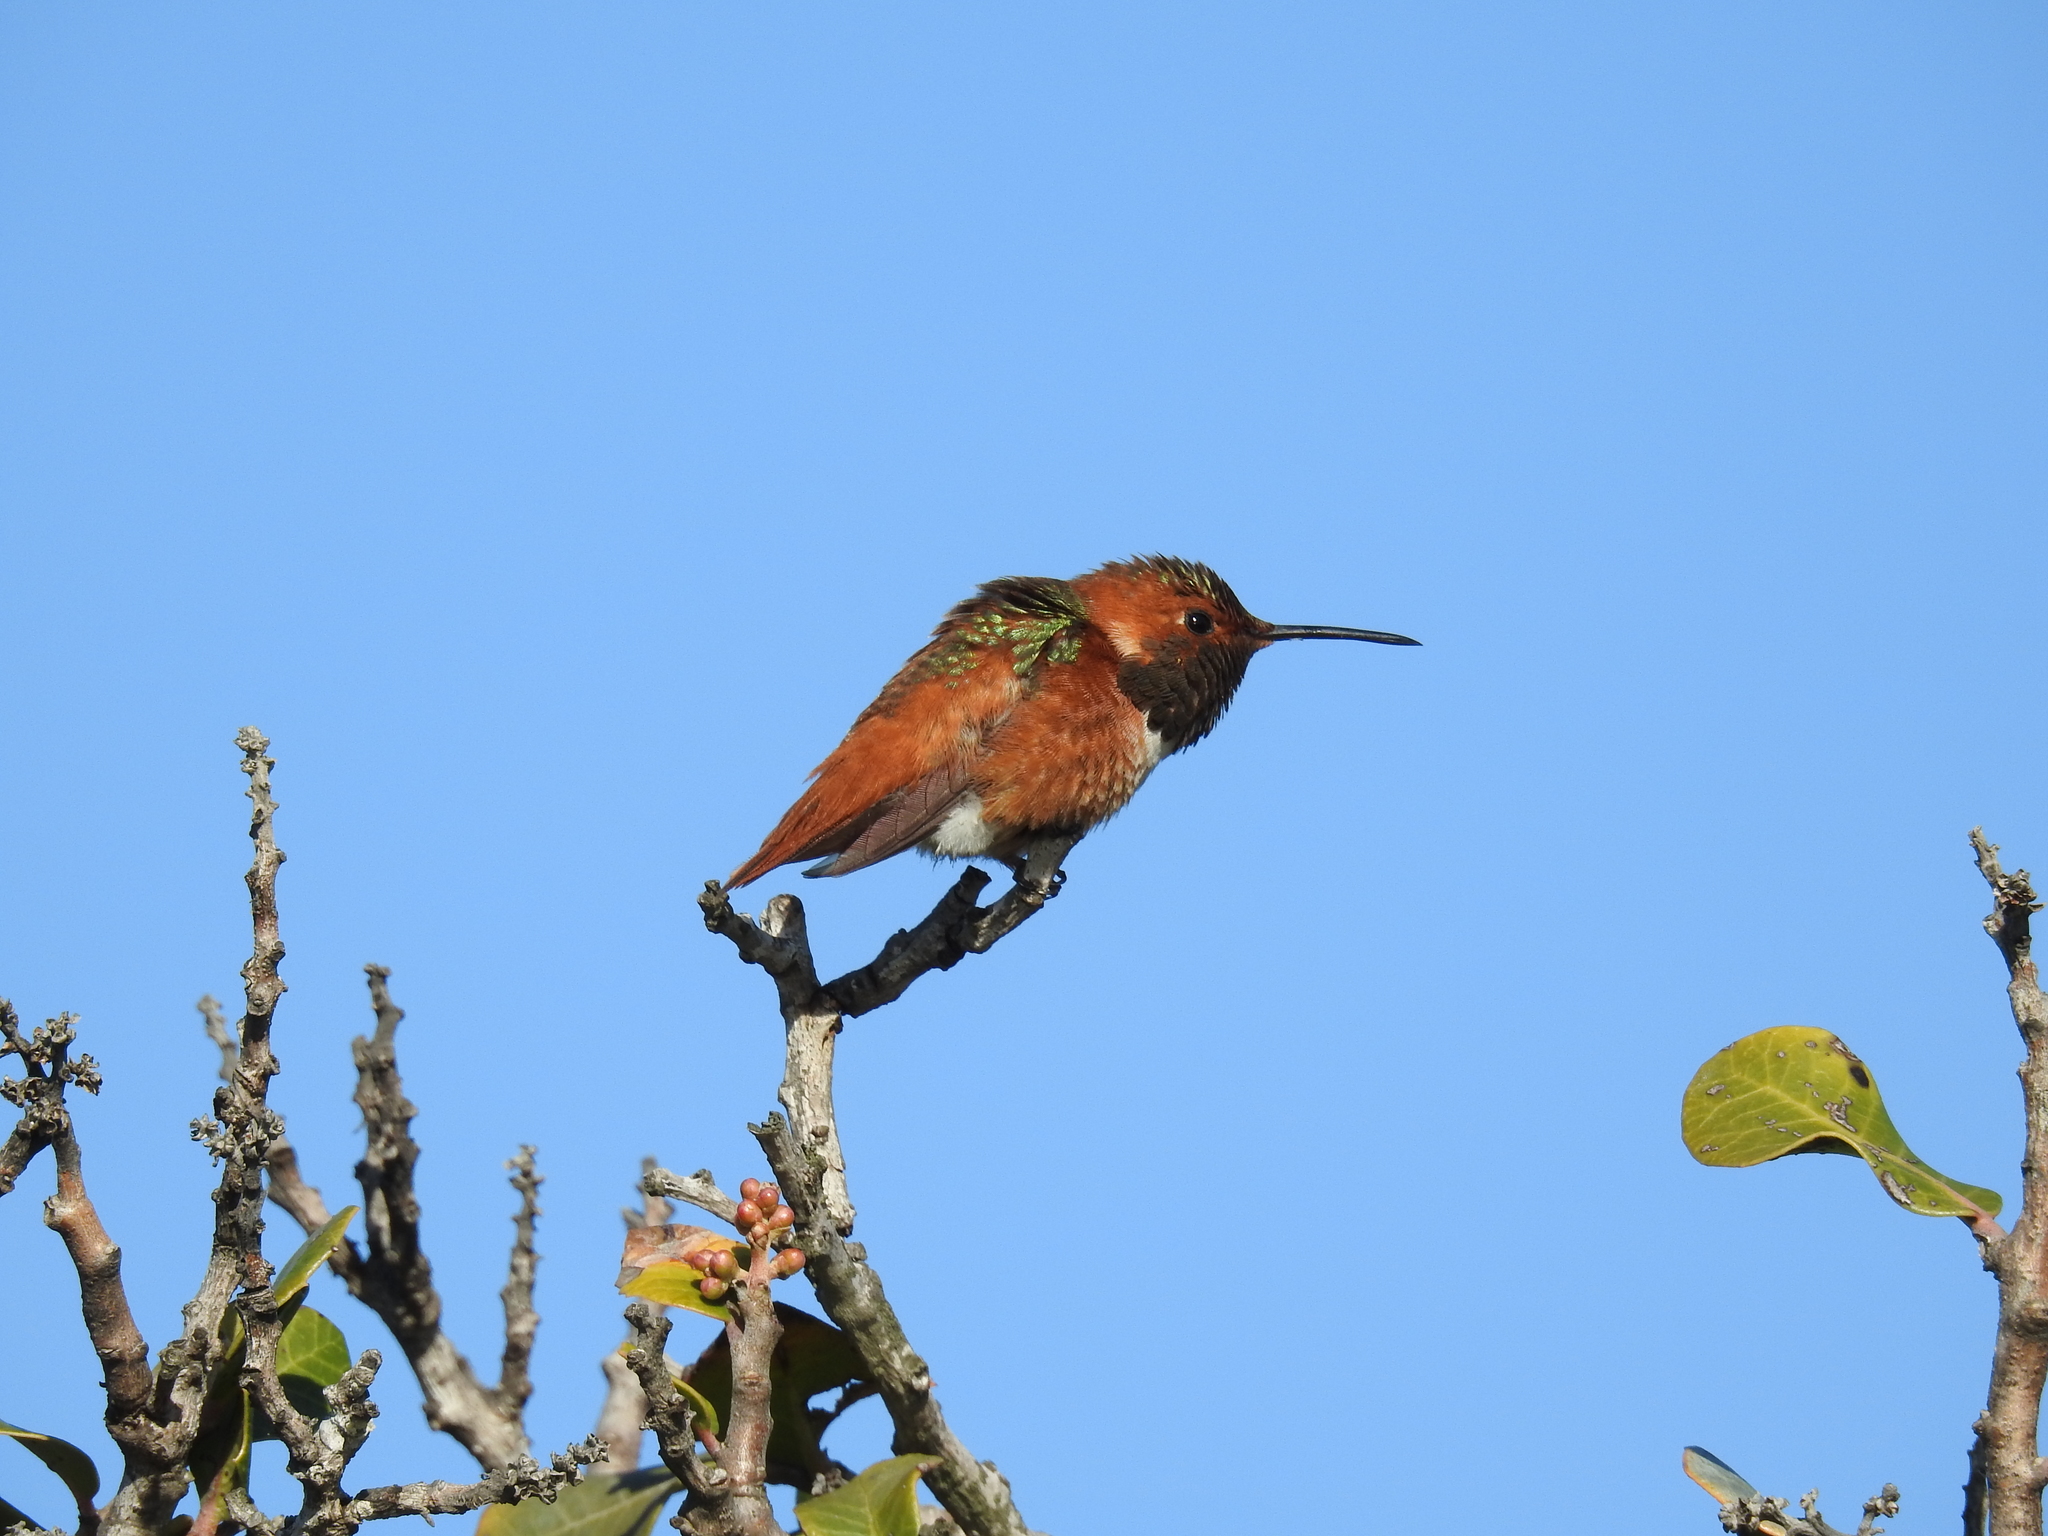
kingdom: Animalia
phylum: Chordata
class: Aves
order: Apodiformes
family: Trochilidae
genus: Selasphorus
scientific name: Selasphorus sasin
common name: Allen's hummingbird
